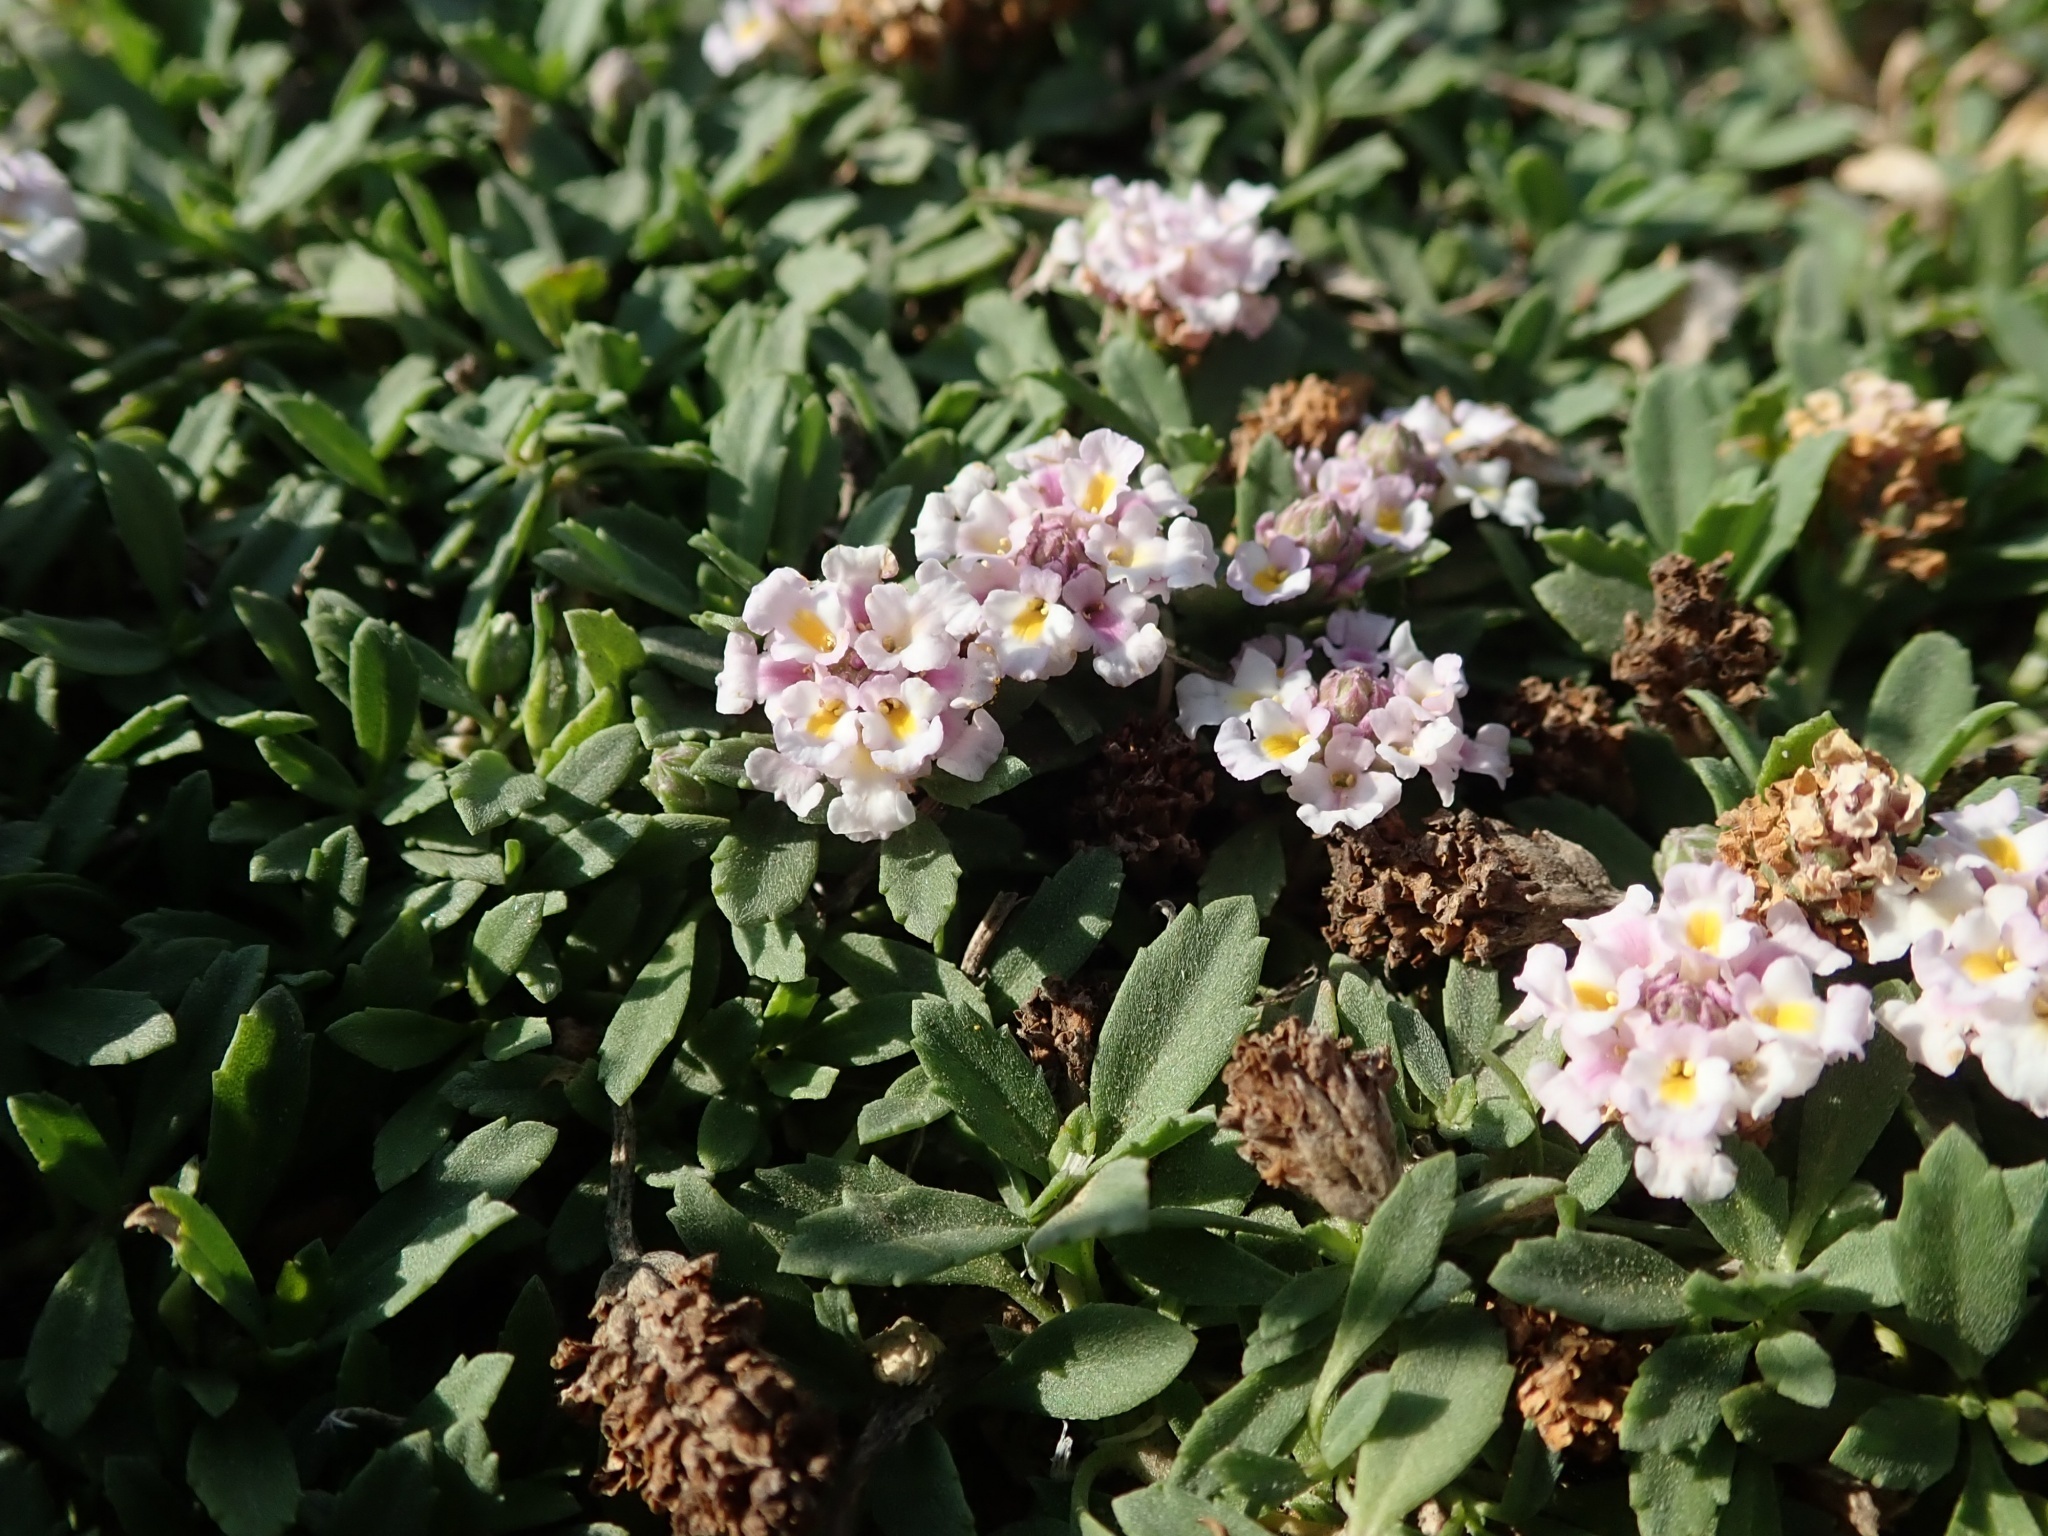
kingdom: Plantae
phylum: Tracheophyta
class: Magnoliopsida
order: Lamiales
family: Verbenaceae
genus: Phyla
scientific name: Phyla nodiflora
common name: Frogfruit
